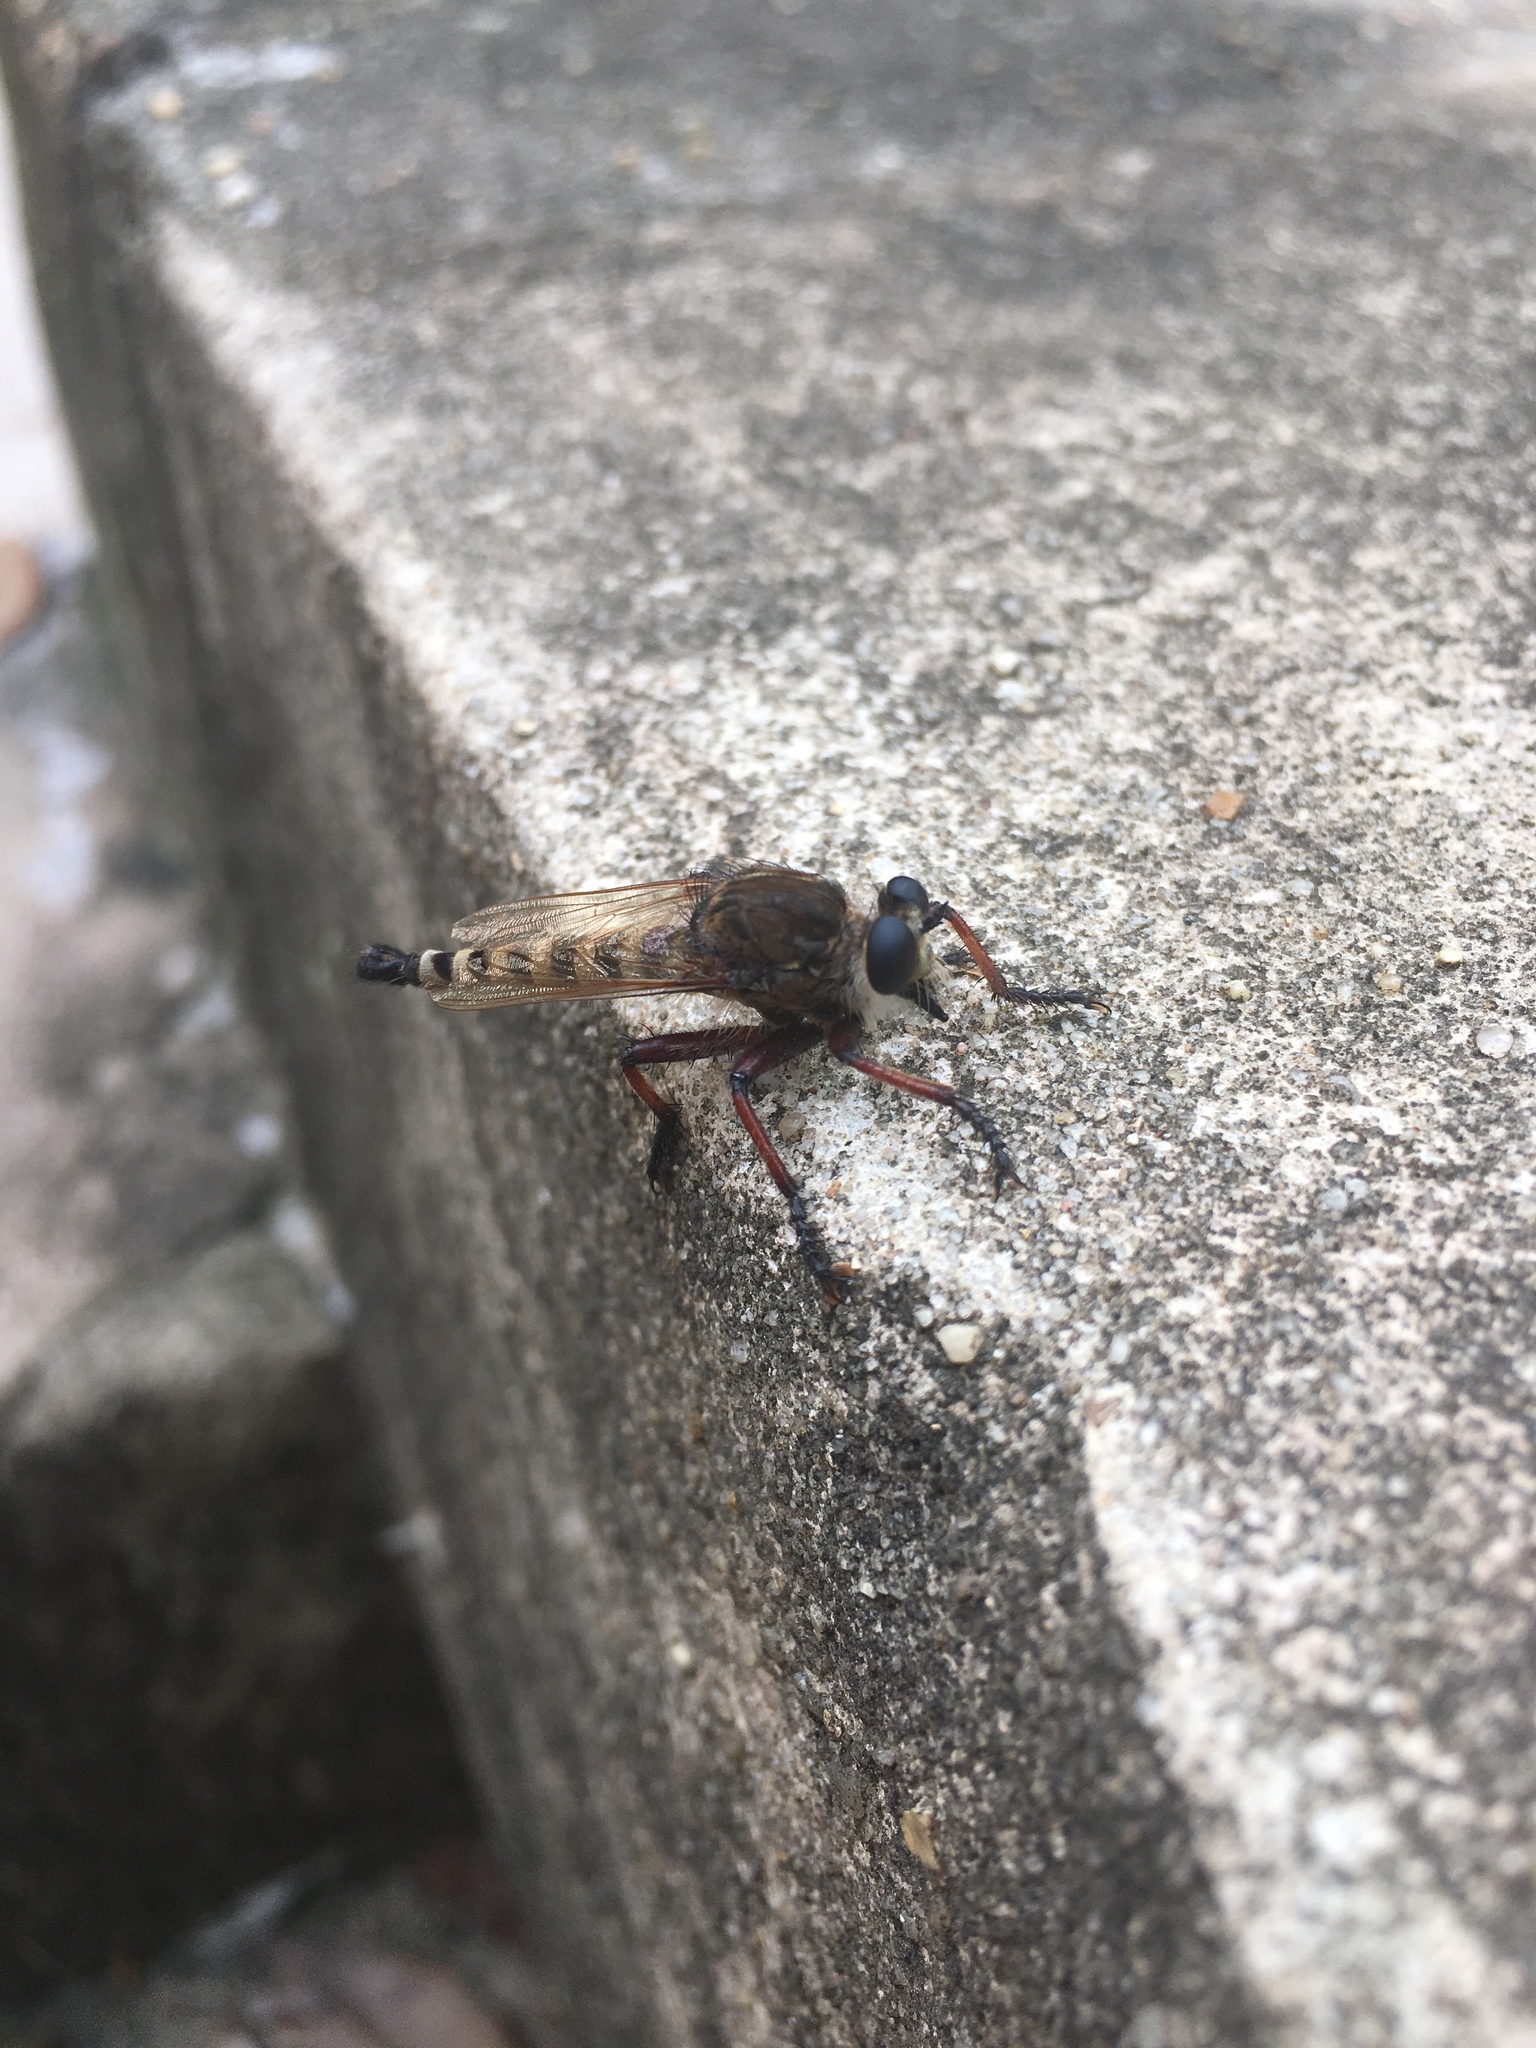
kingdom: Animalia
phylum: Arthropoda
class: Insecta
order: Diptera
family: Asilidae
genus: Promachus
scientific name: Promachus hinei
